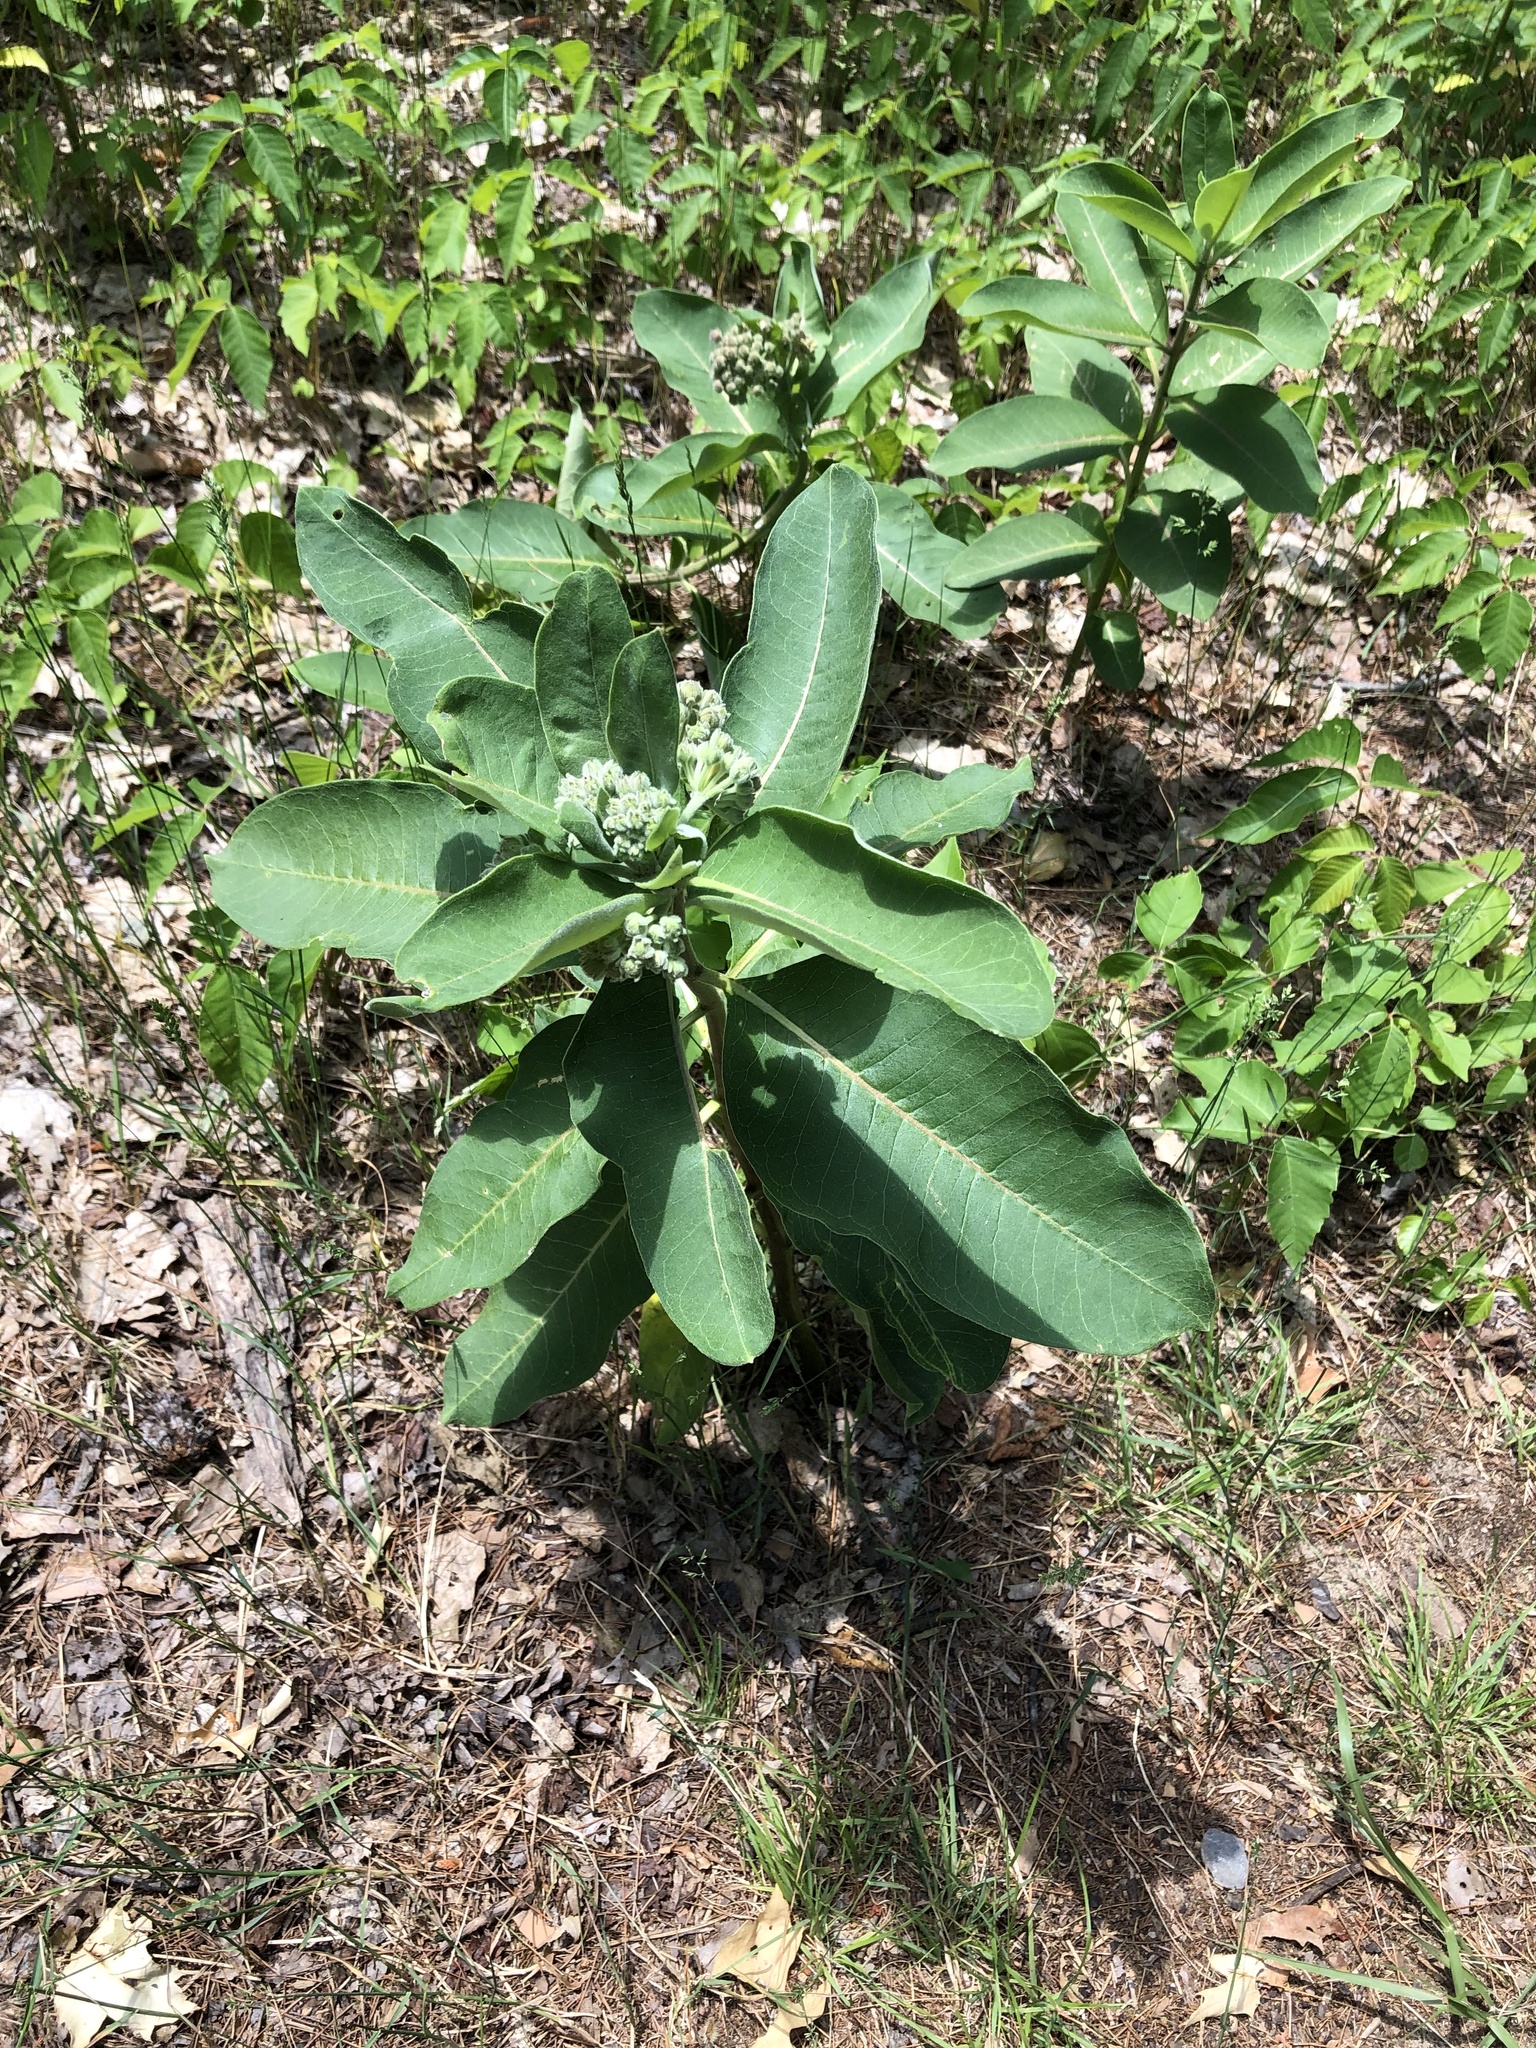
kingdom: Plantae
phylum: Tracheophyta
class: Magnoliopsida
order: Gentianales
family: Apocynaceae
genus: Asclepias
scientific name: Asclepias syriaca
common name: Common milkweed
